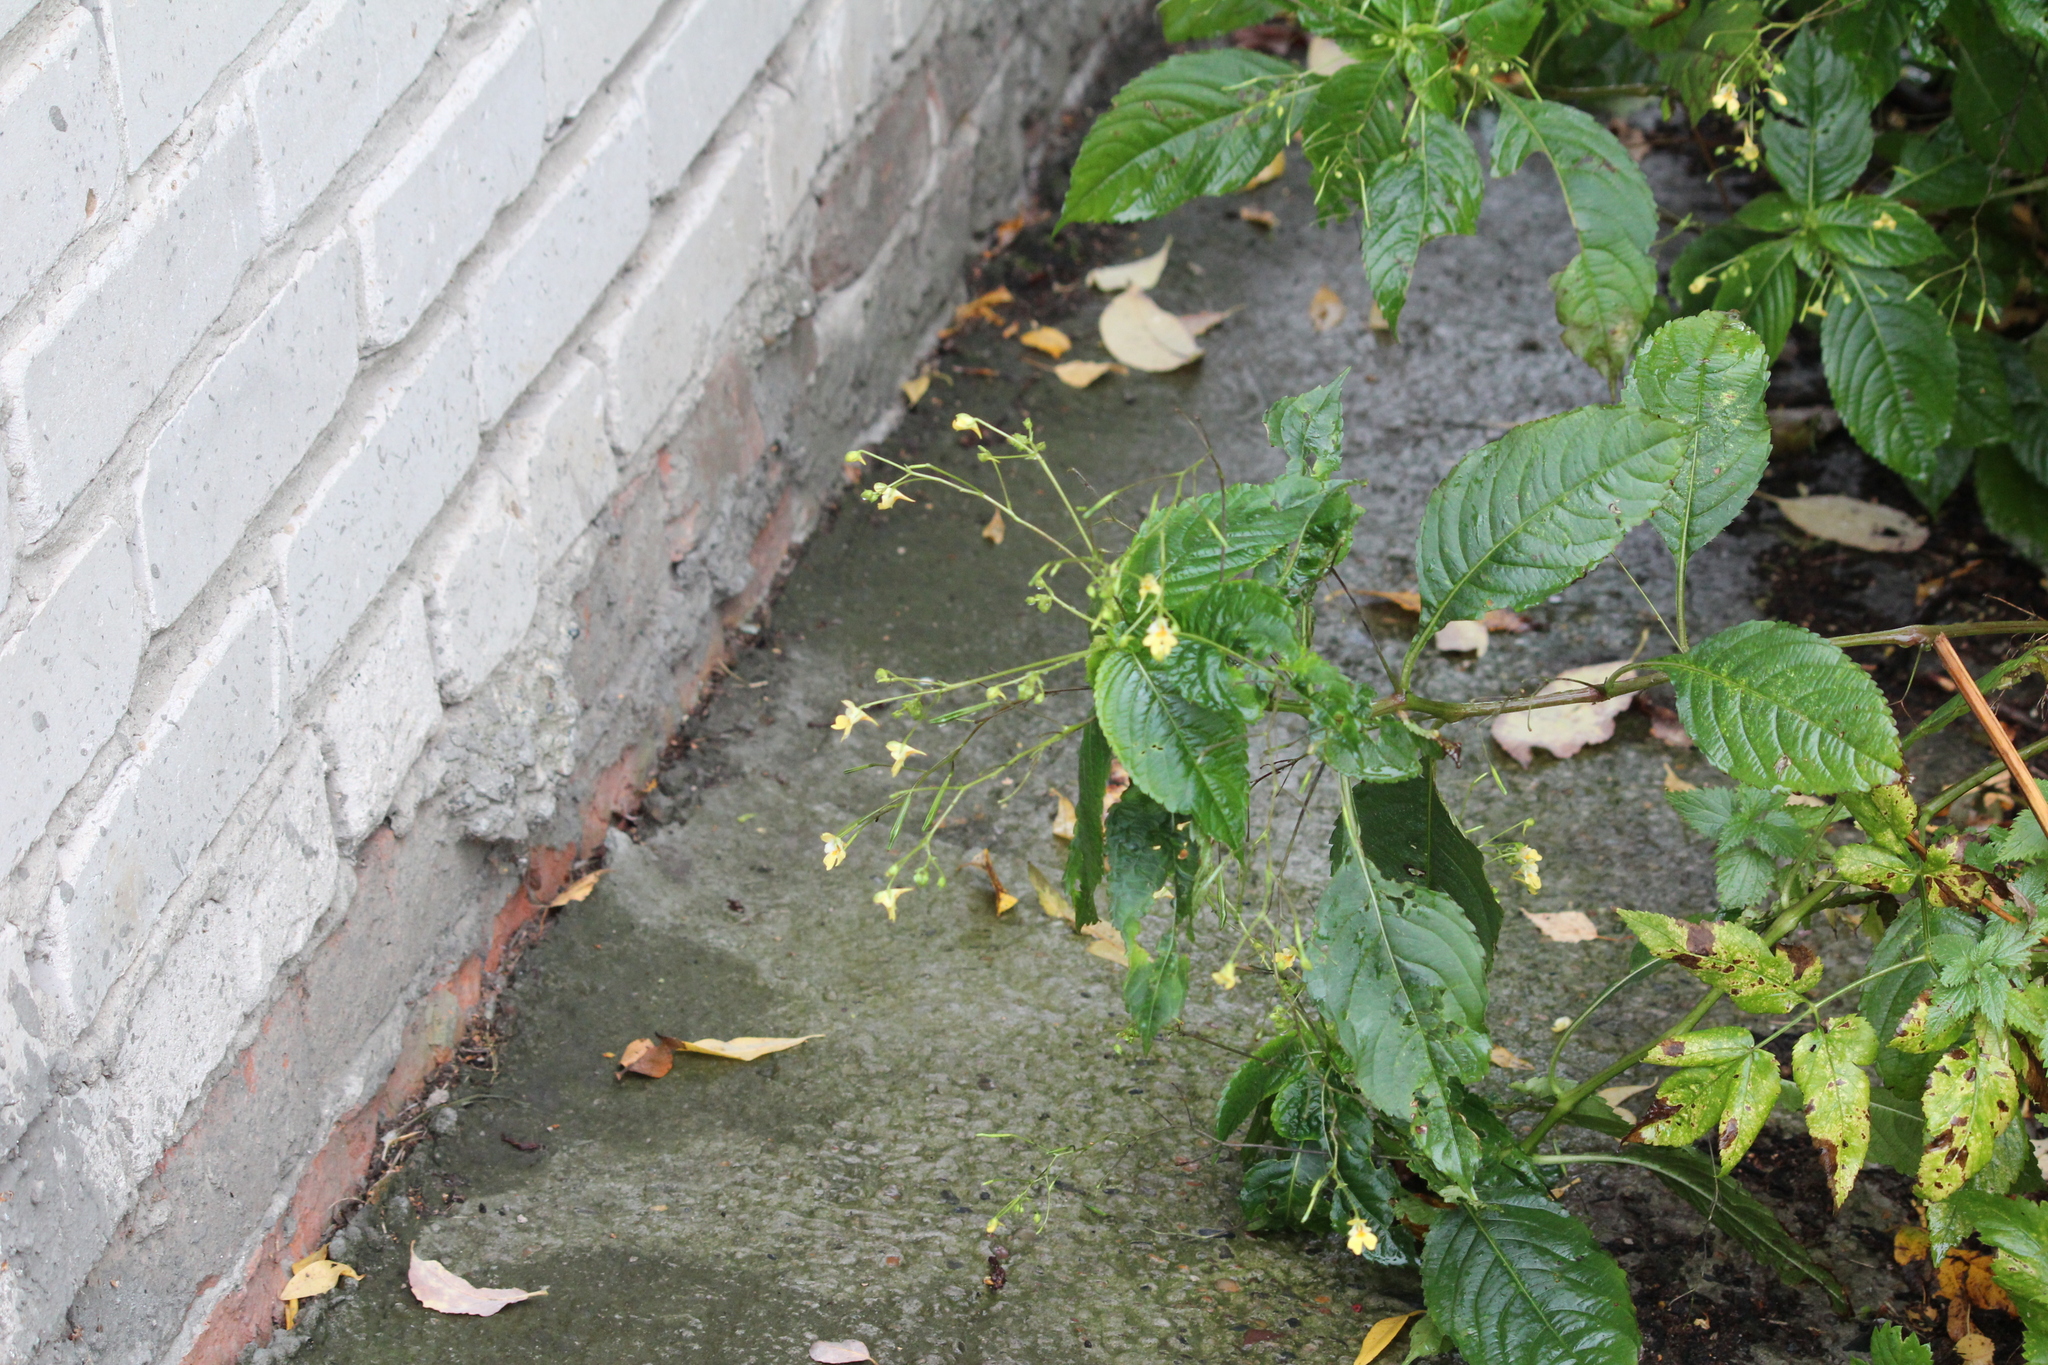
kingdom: Plantae
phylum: Tracheophyta
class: Magnoliopsida
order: Ericales
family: Balsaminaceae
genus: Impatiens
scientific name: Impatiens parviflora
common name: Small balsam
